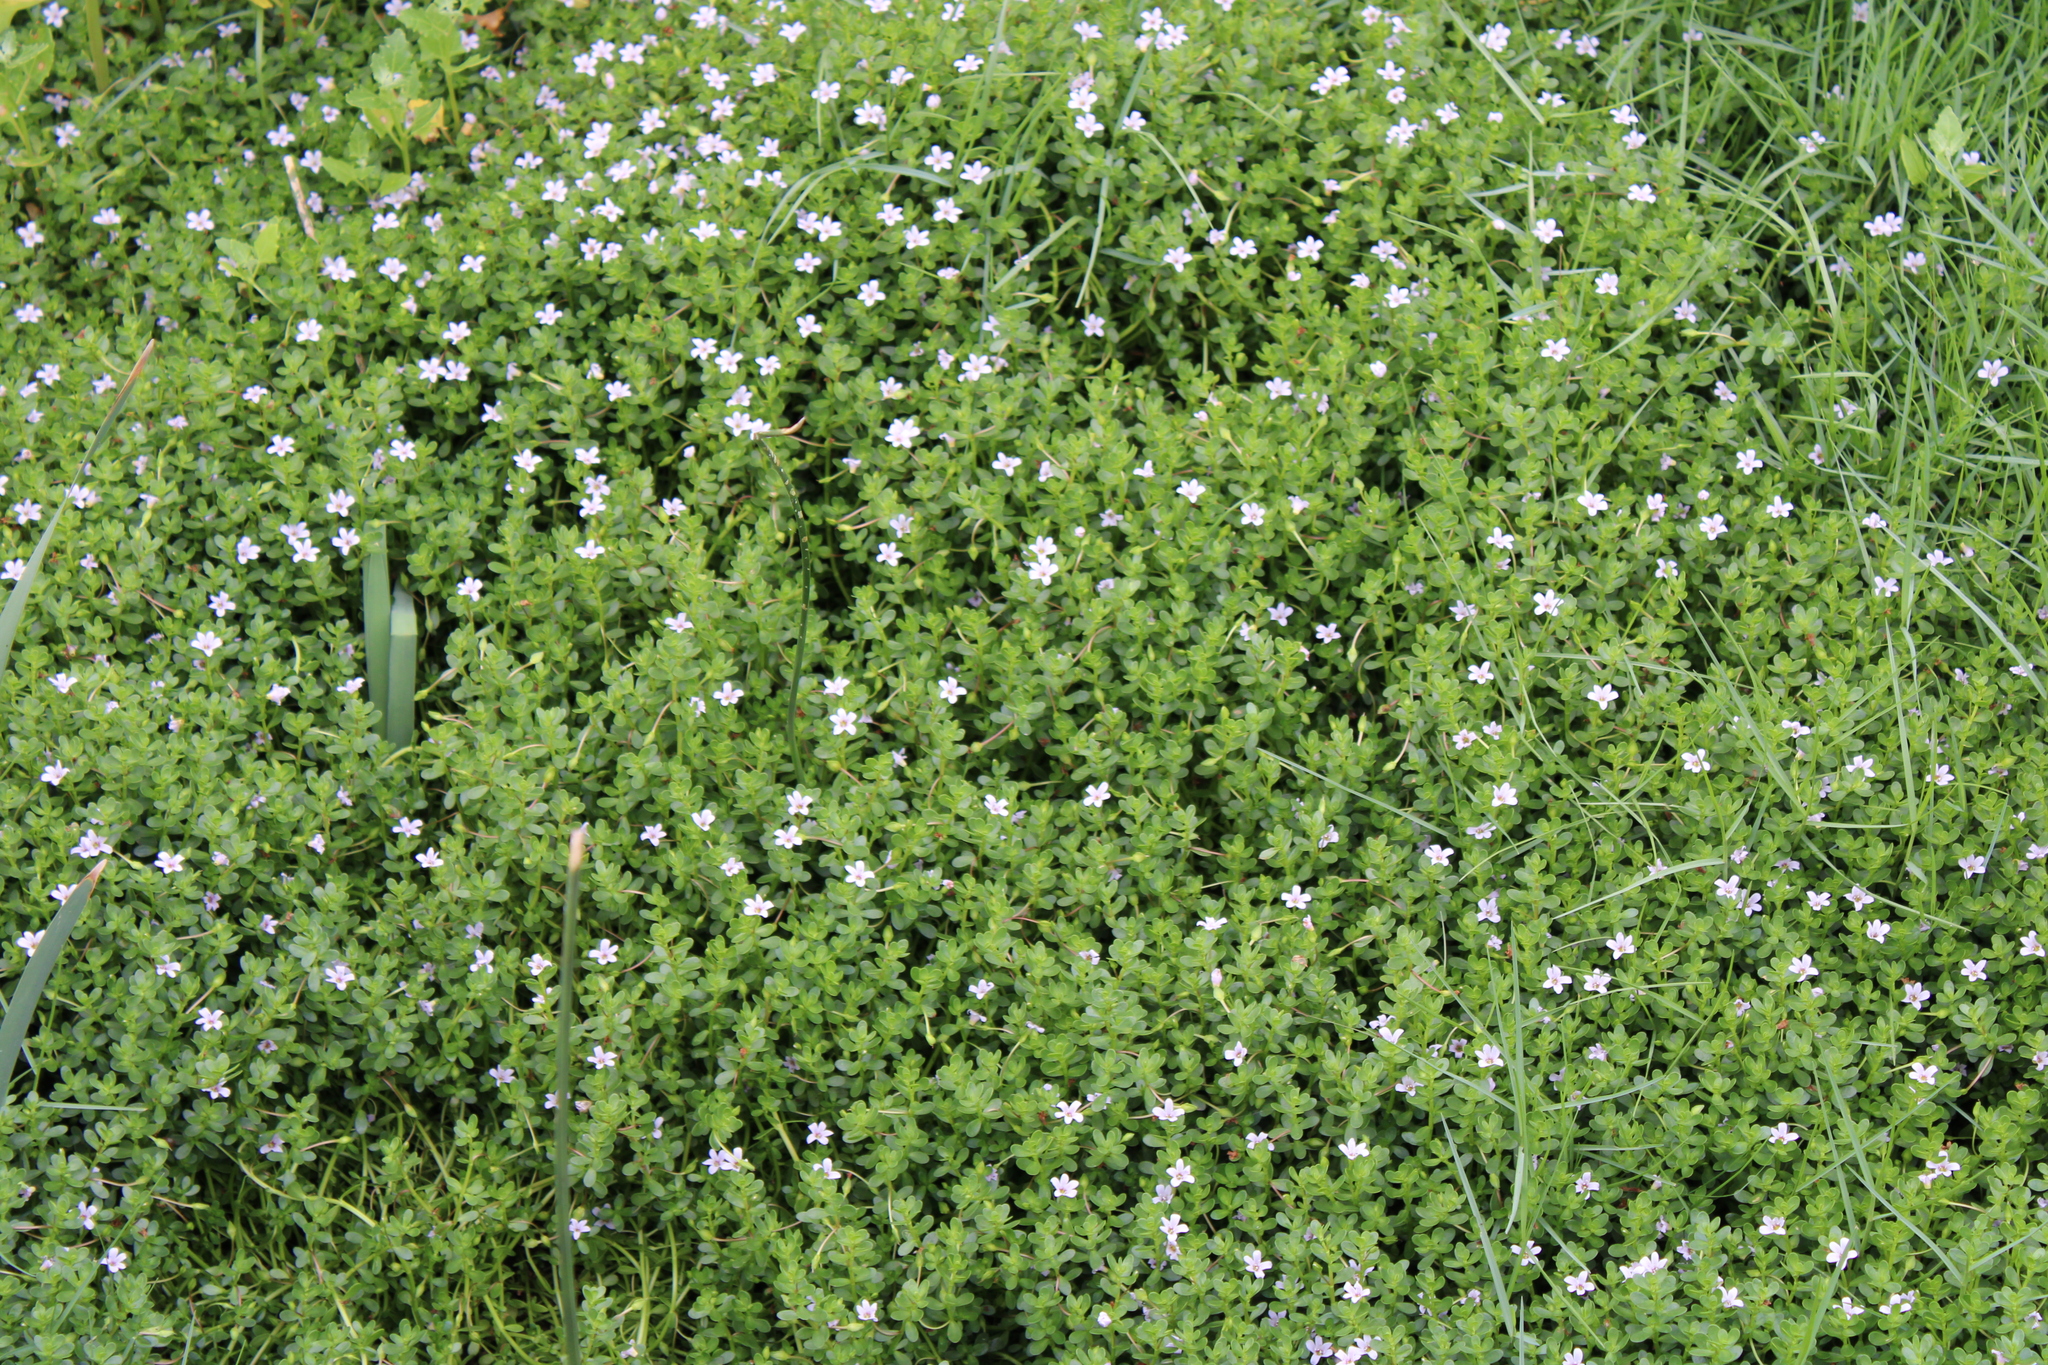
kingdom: Plantae
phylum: Tracheophyta
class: Magnoliopsida
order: Lamiales
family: Plantaginaceae
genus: Bacopa
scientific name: Bacopa monnieri
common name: Indian-pennywort
